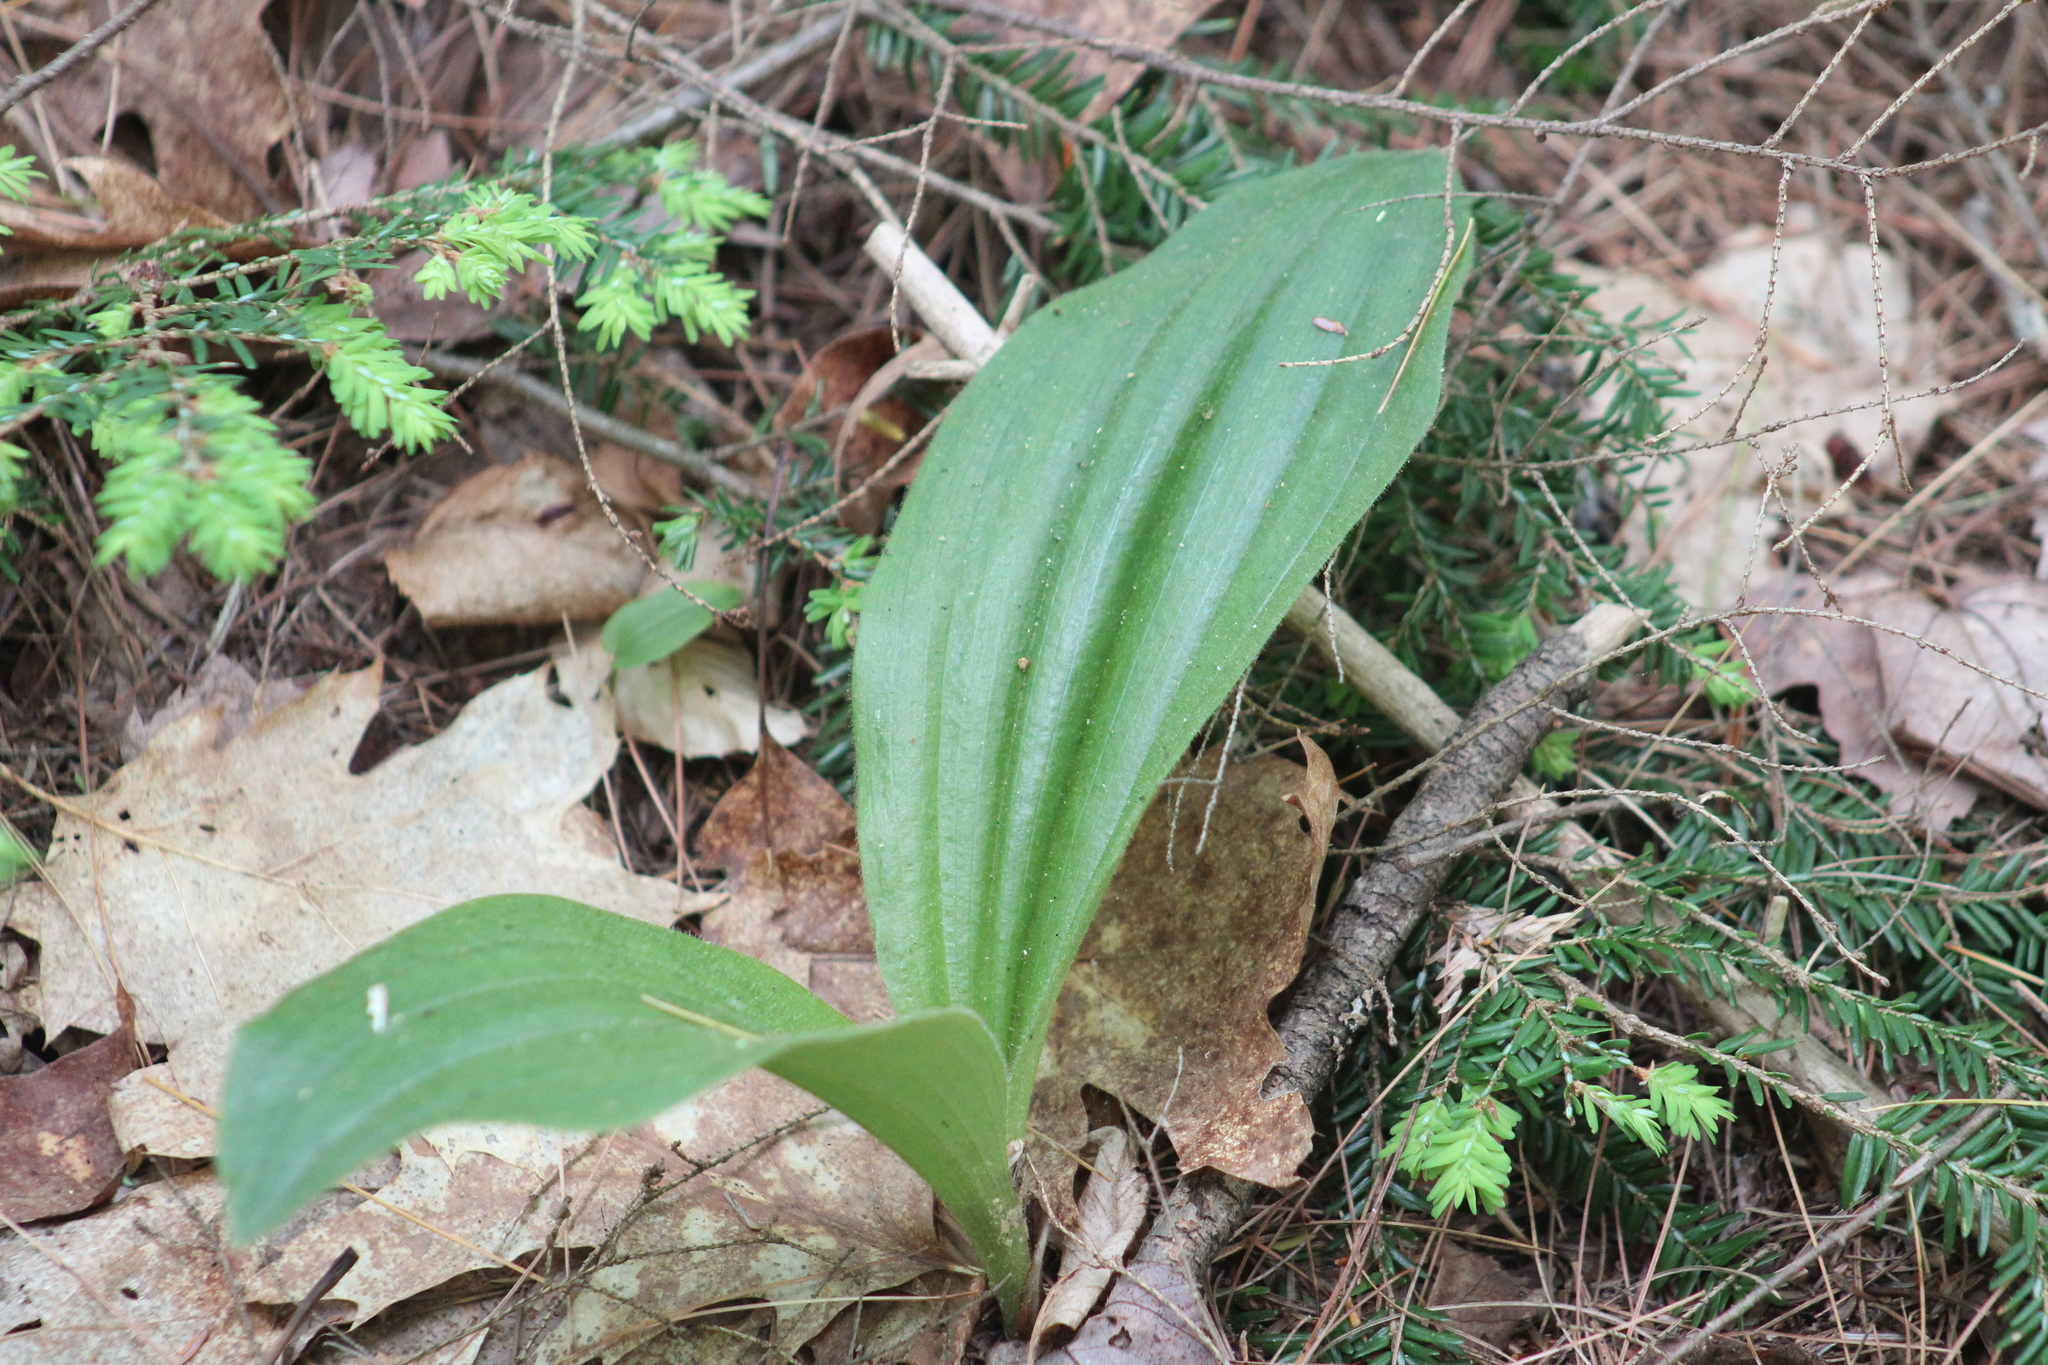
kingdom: Plantae
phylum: Tracheophyta
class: Liliopsida
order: Asparagales
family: Orchidaceae
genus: Cypripedium
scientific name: Cypripedium acaule
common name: Pink lady's-slipper
